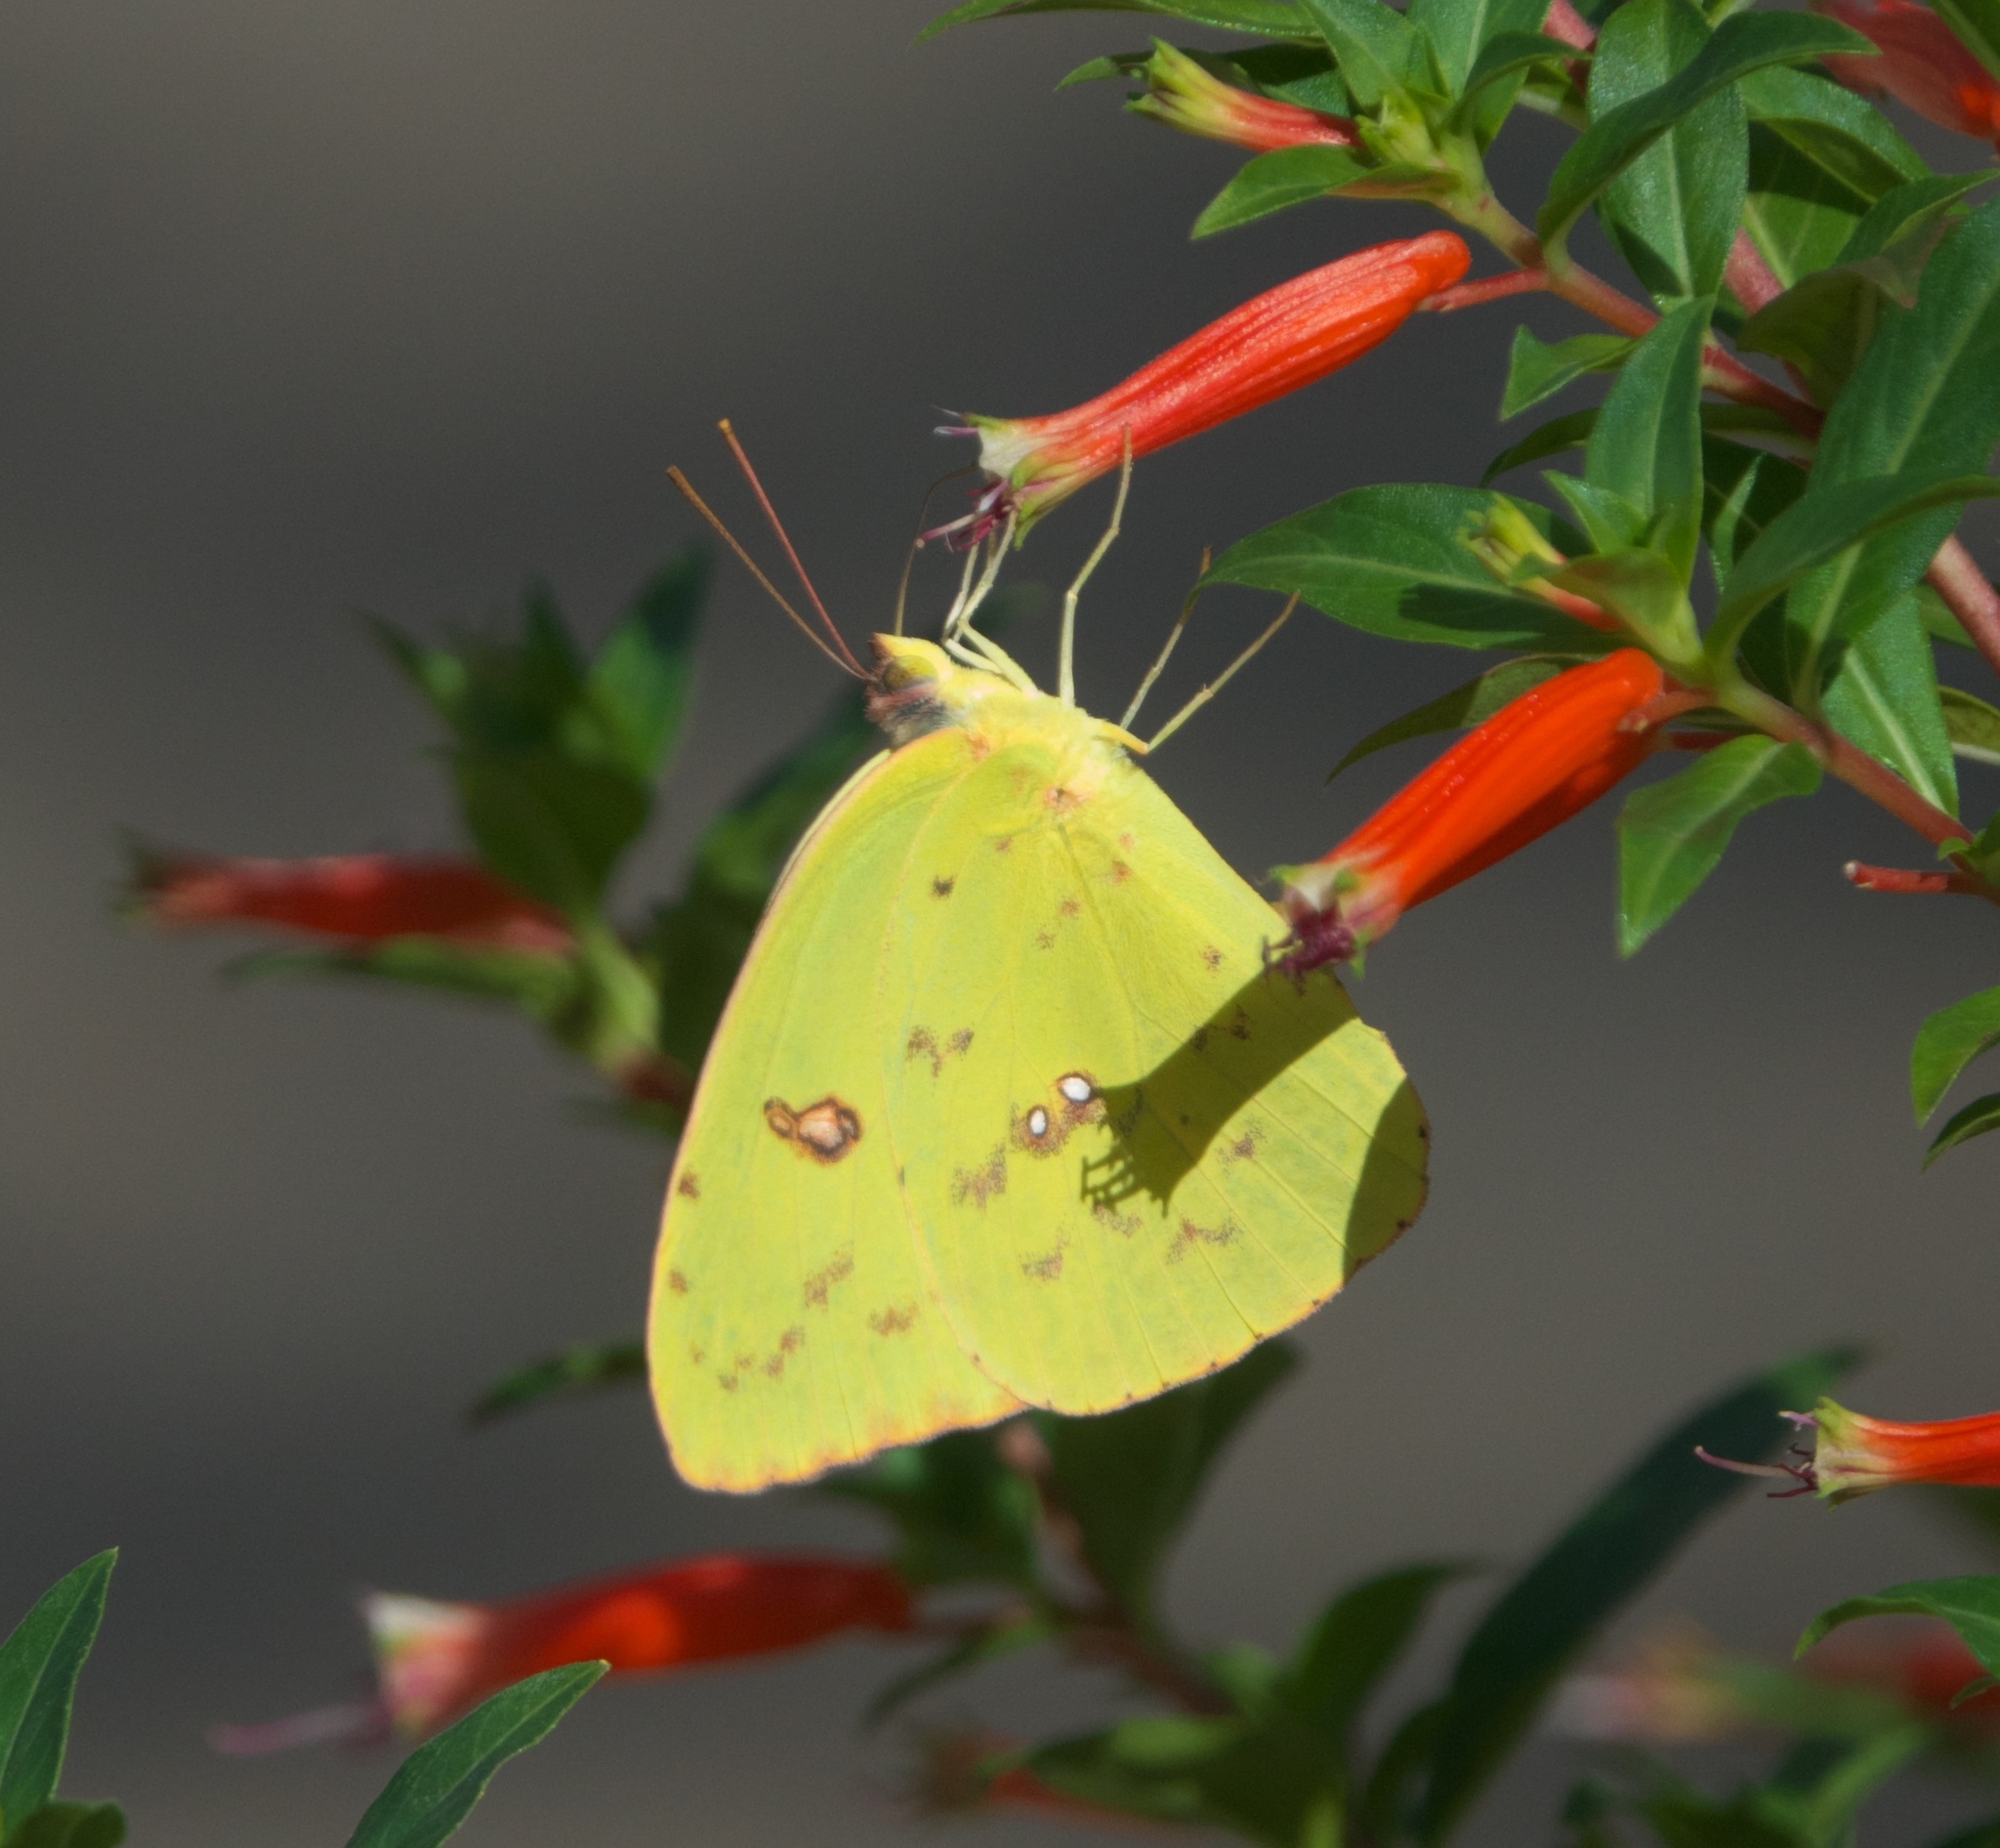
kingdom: Animalia
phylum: Arthropoda
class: Insecta
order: Lepidoptera
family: Pieridae
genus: Phoebis
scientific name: Phoebis sennae
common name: Cloudless sulphur
